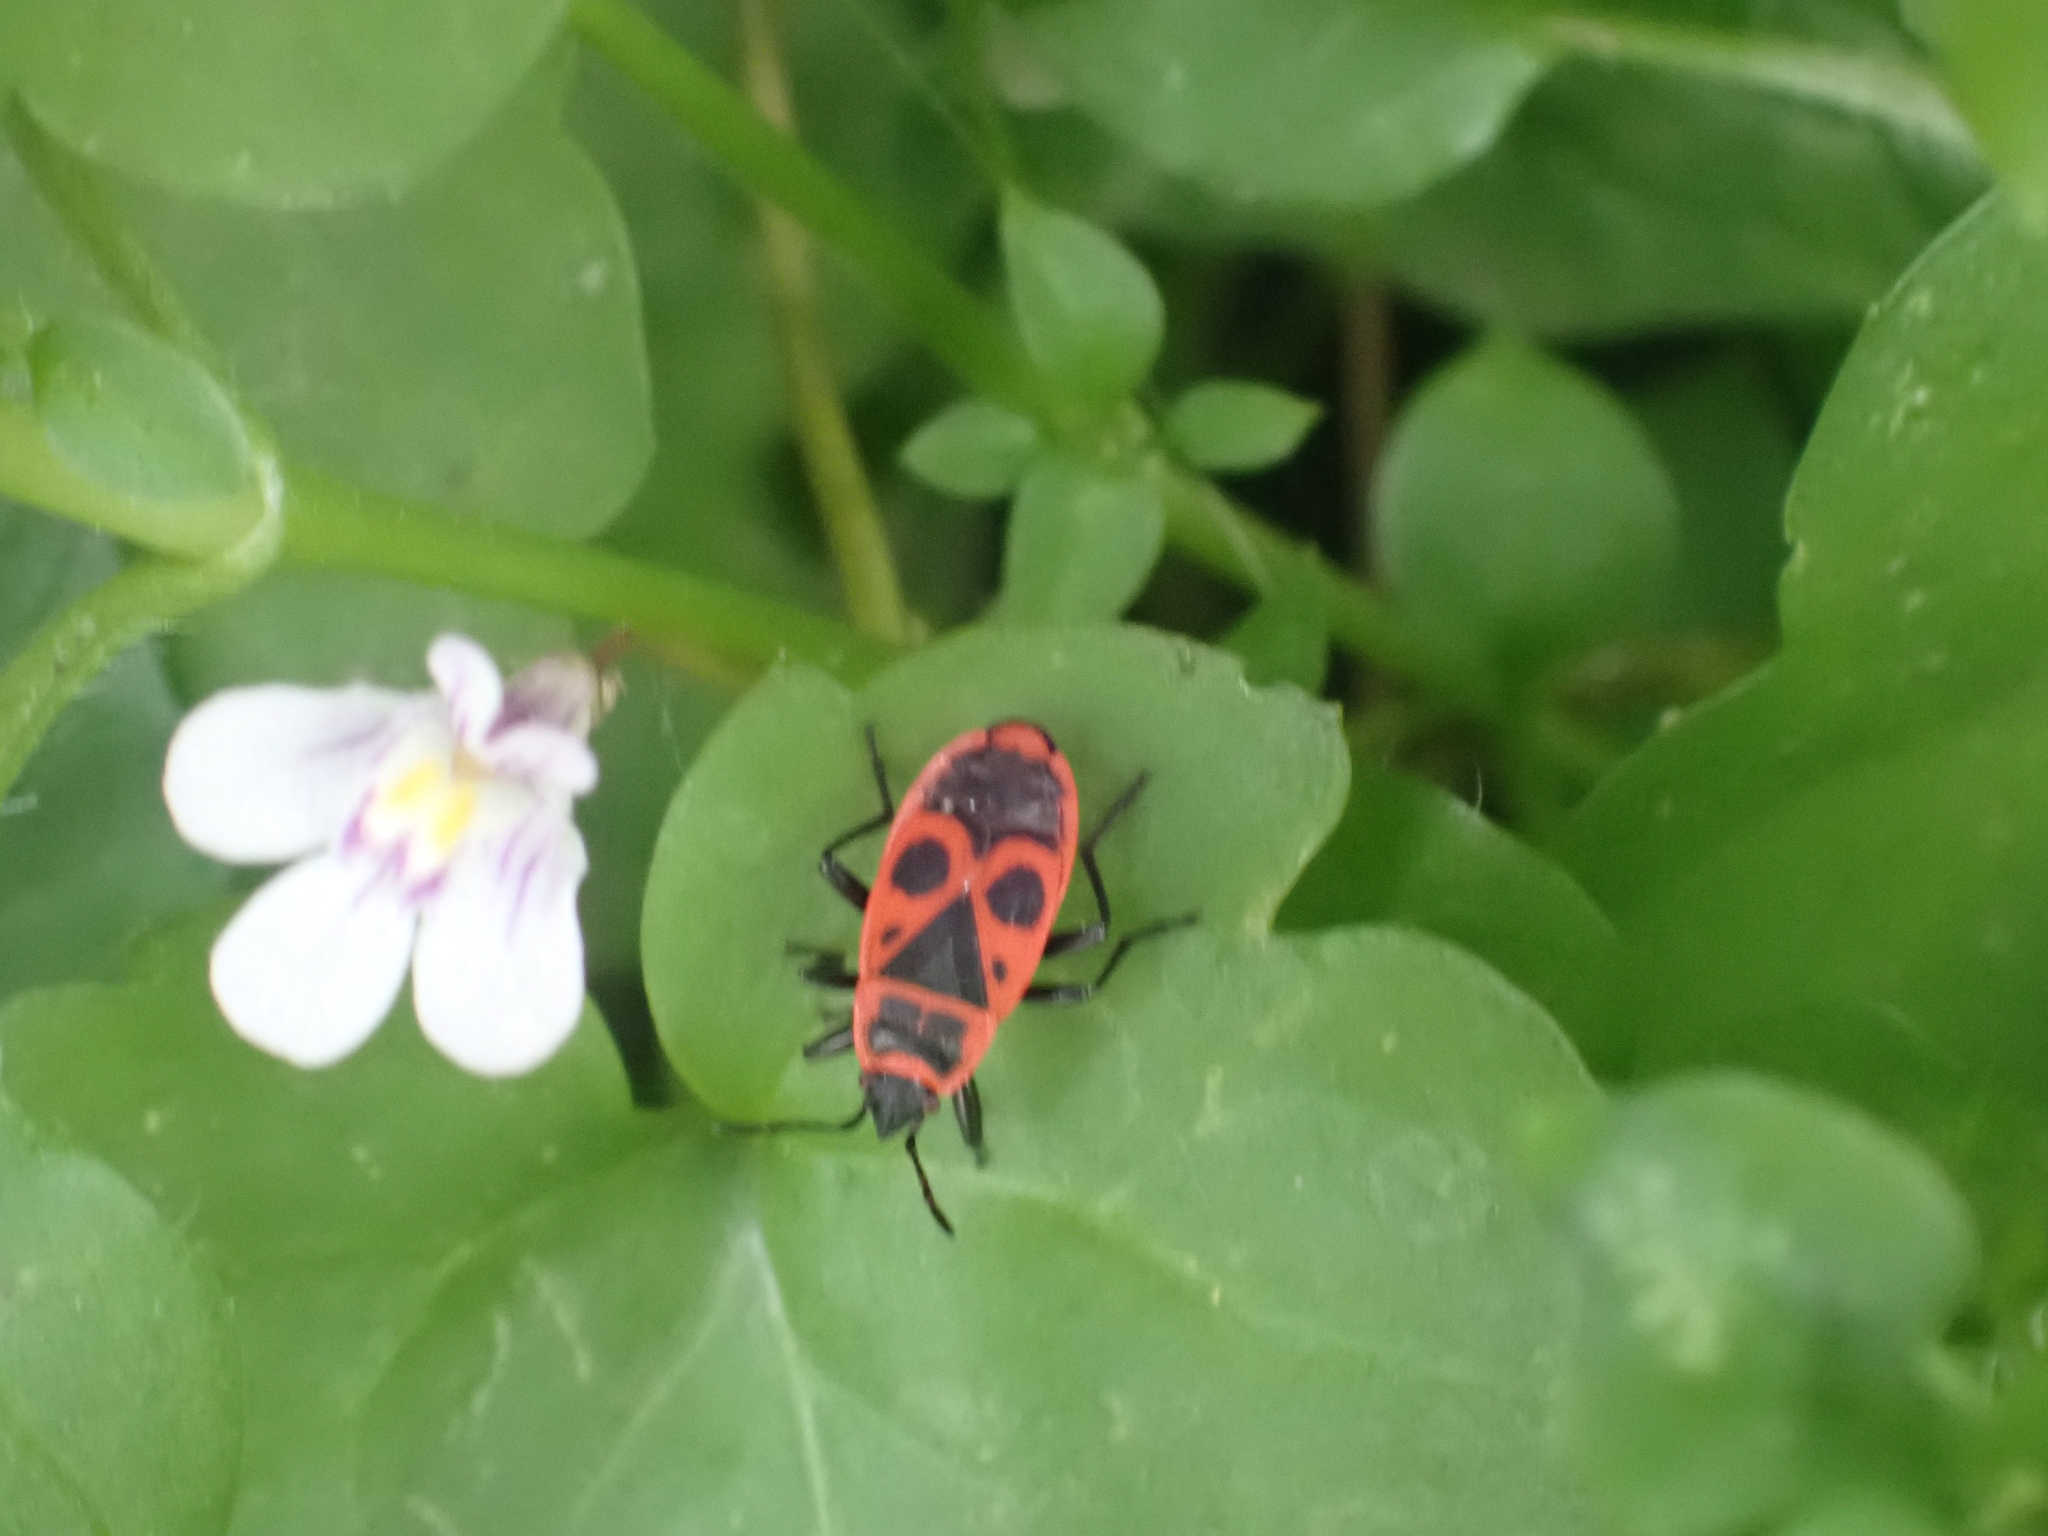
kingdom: Animalia
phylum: Arthropoda
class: Insecta
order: Hemiptera
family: Pyrrhocoridae
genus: Pyrrhocoris
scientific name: Pyrrhocoris apterus
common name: Firebug
